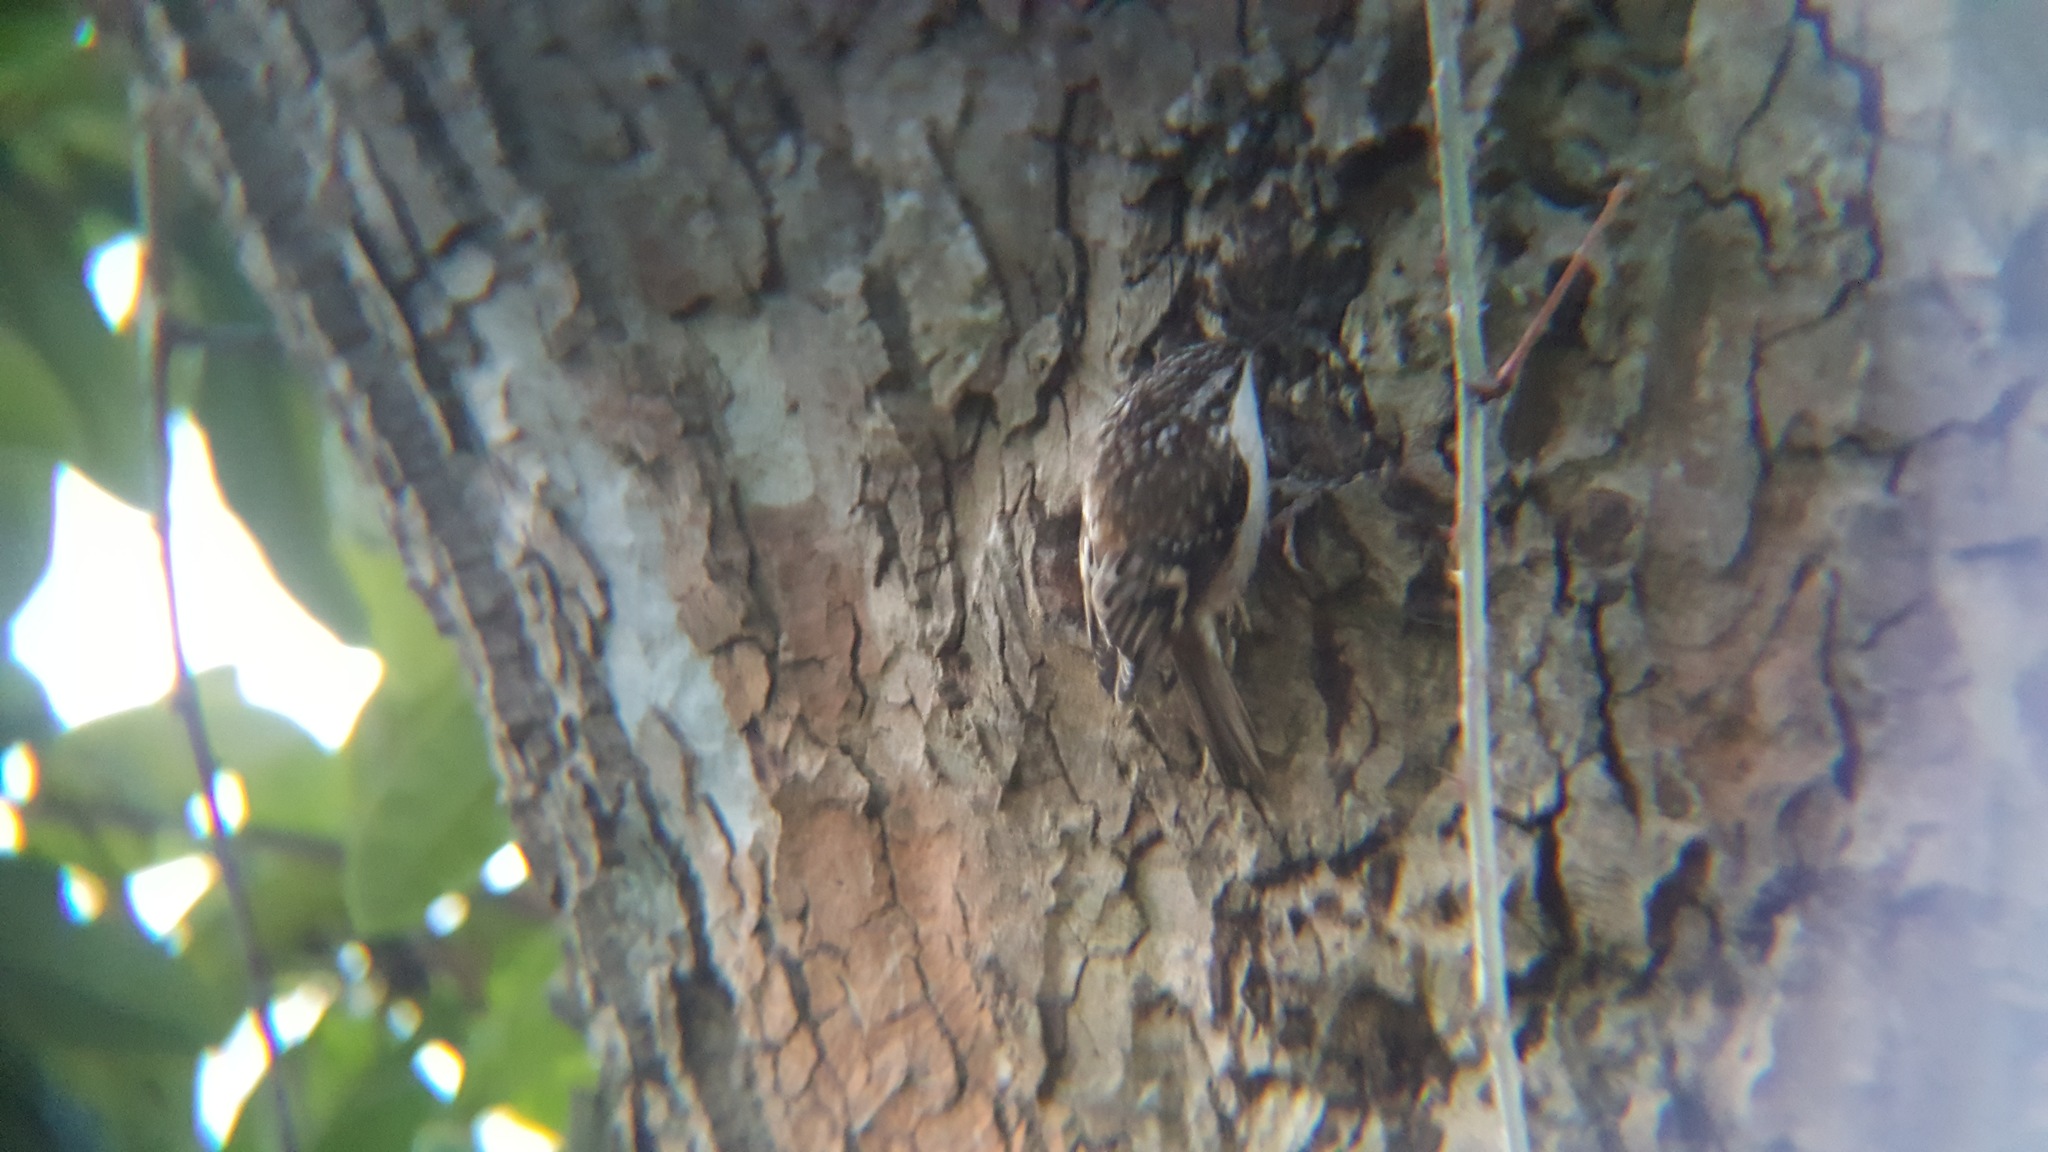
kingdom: Animalia
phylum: Chordata
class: Aves
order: Passeriformes
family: Certhiidae
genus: Certhia
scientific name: Certhia americana
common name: Brown creeper
